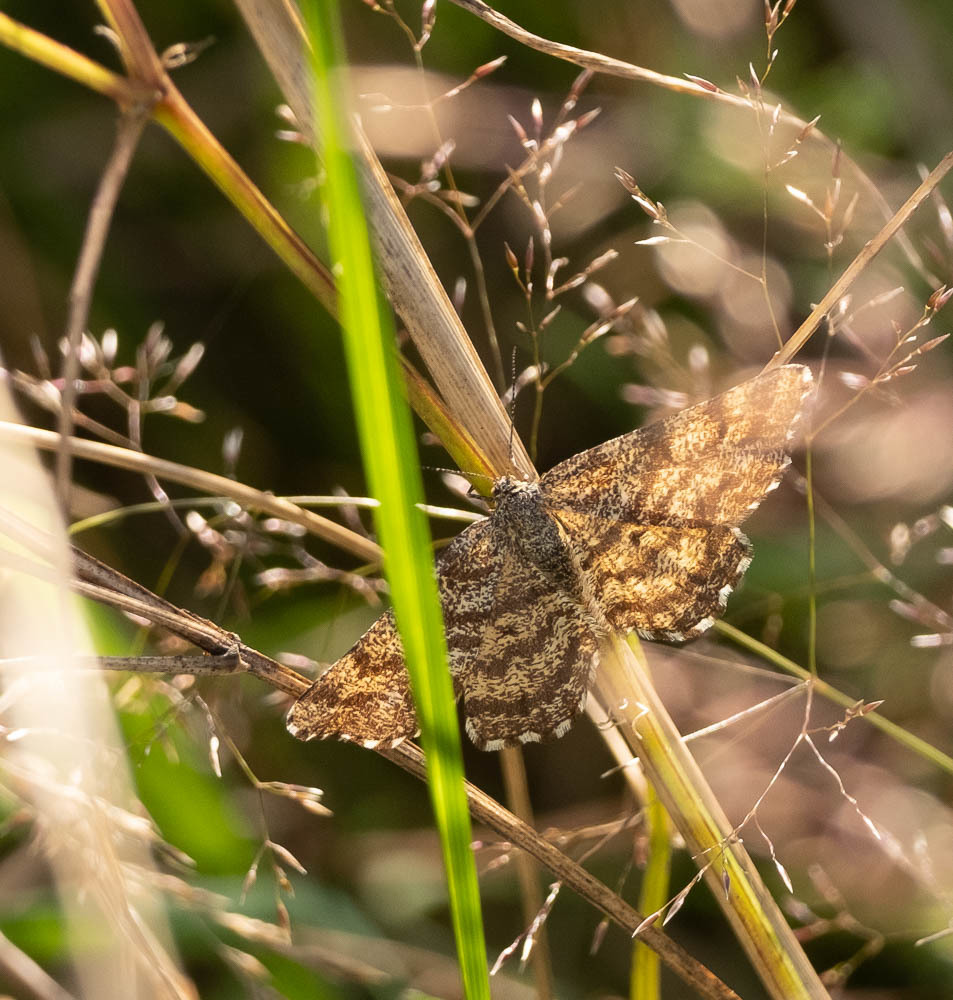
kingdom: Animalia
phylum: Arthropoda
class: Insecta
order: Lepidoptera
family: Geometridae
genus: Ematurga
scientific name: Ematurga atomaria
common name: Common heath
